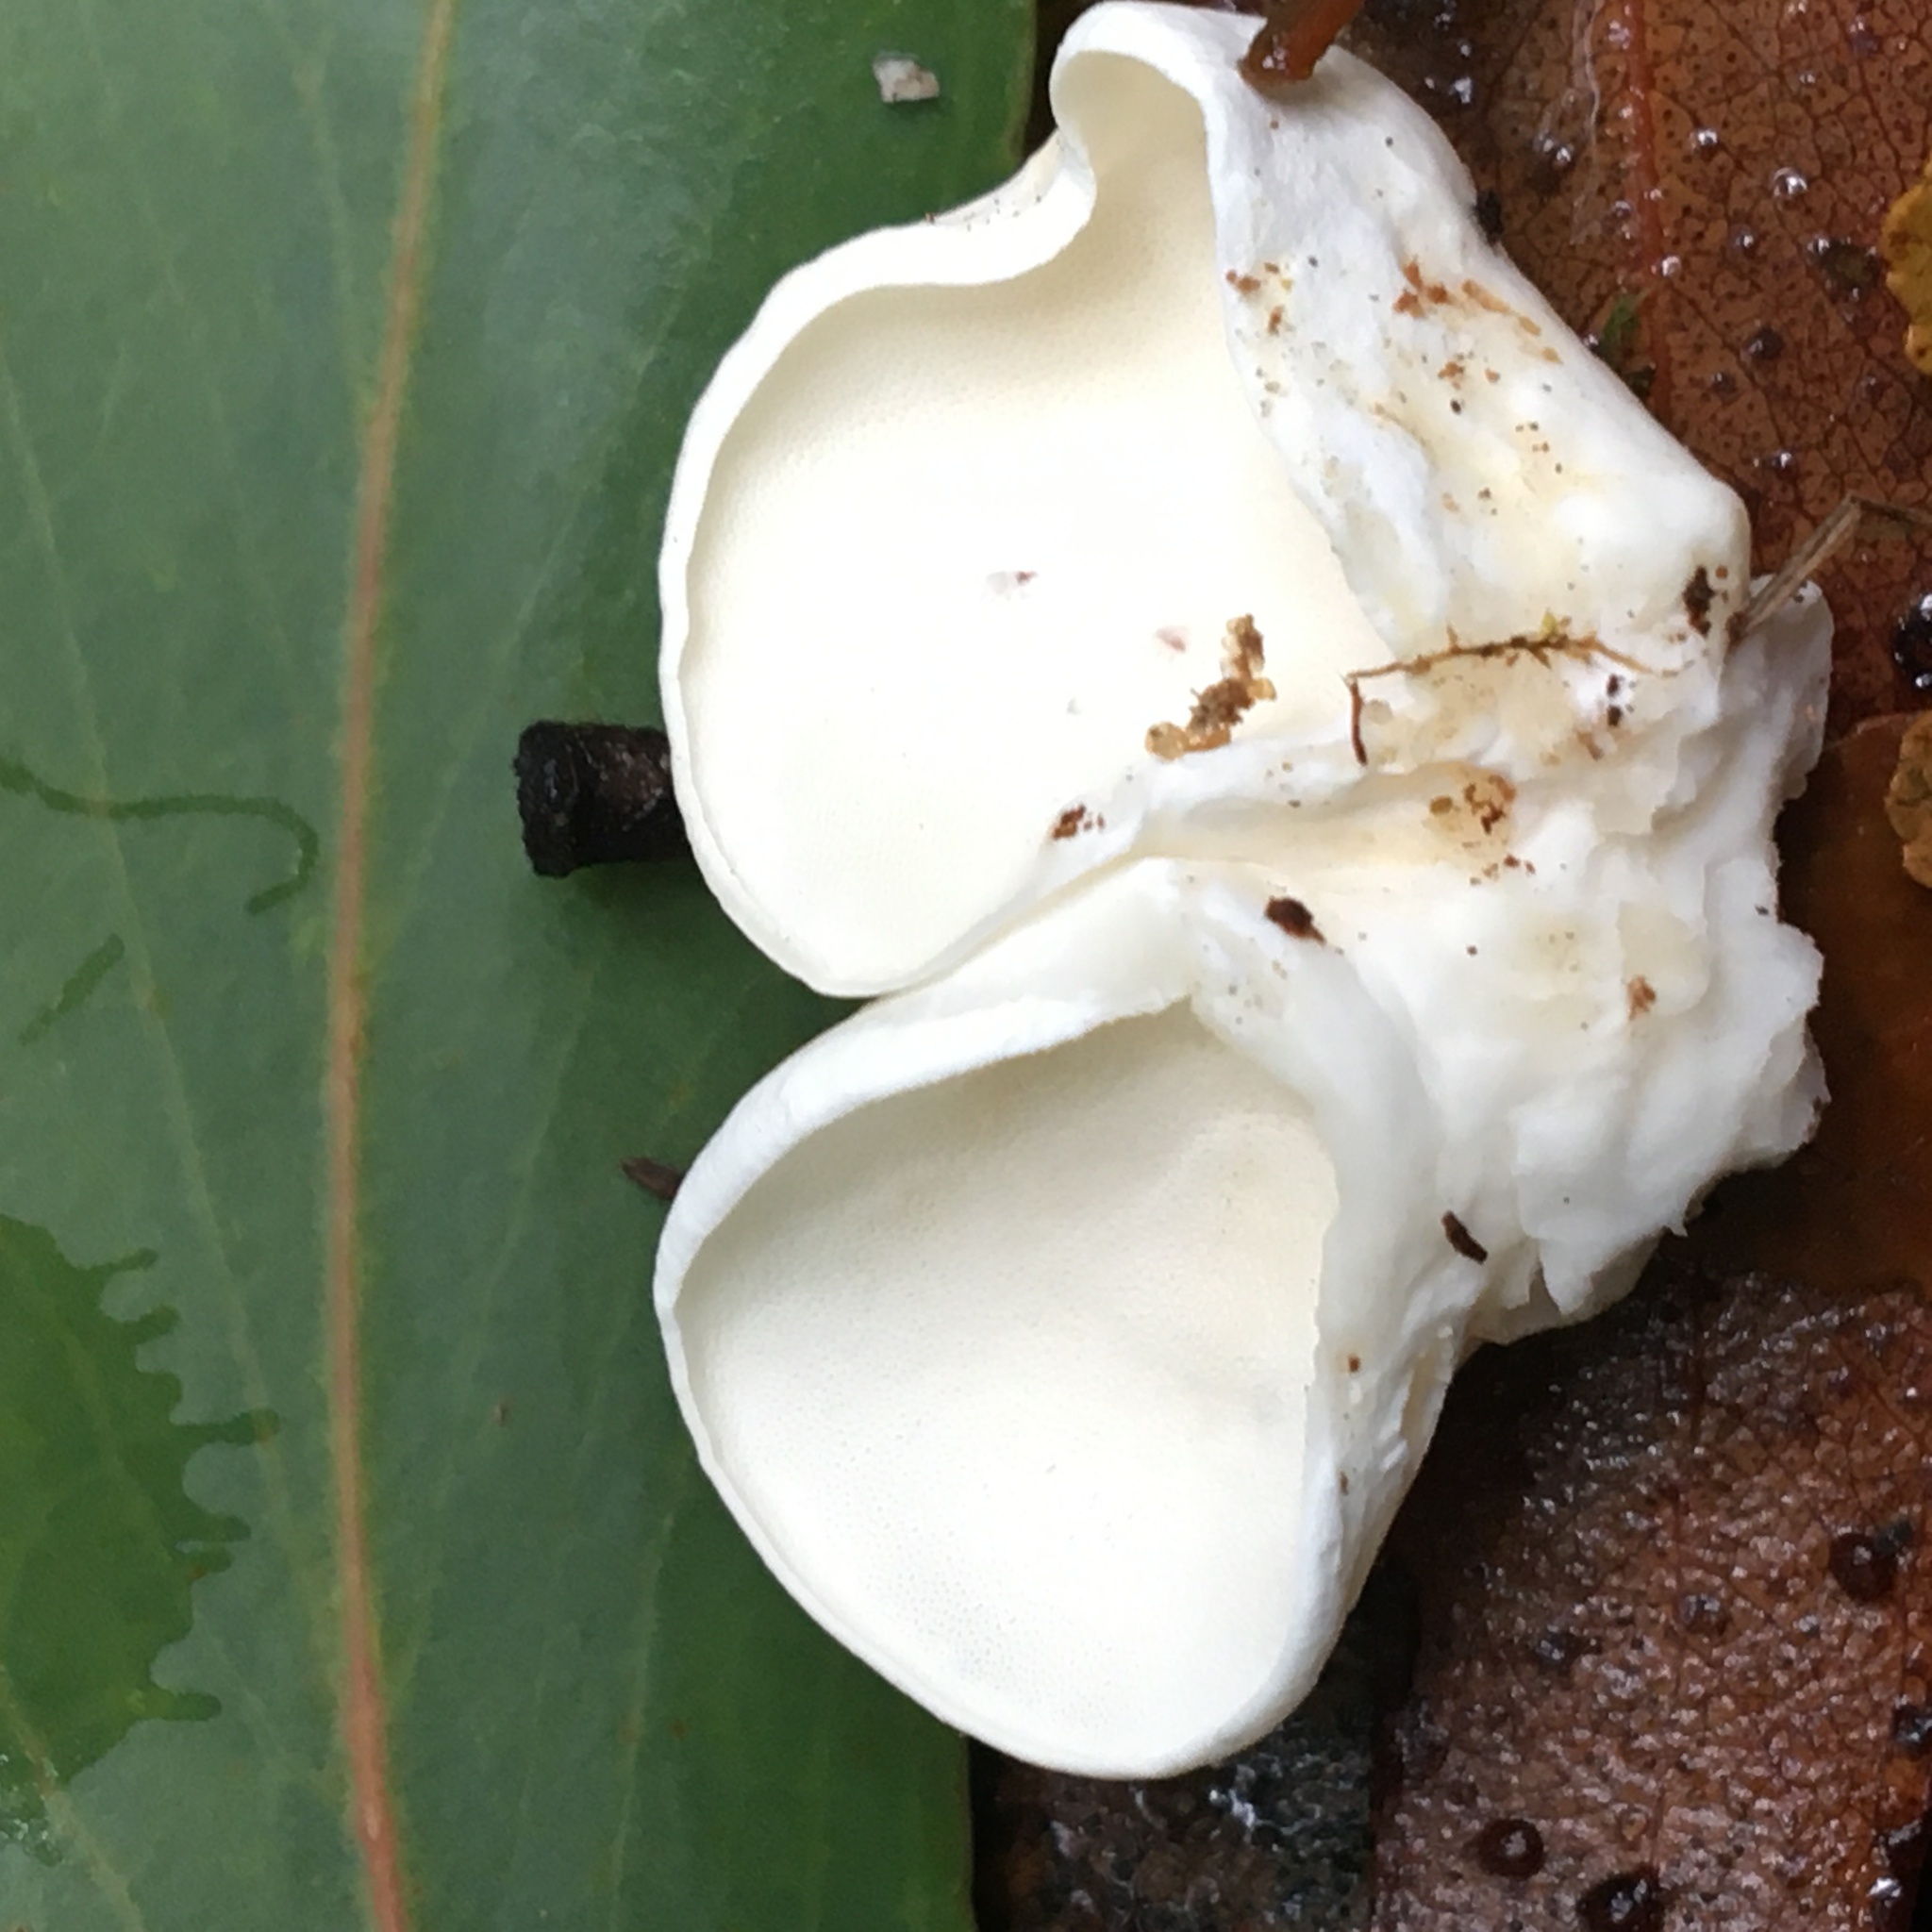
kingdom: Fungi
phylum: Basidiomycota
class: Agaricomycetes
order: Polyporales
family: Irpicaceae
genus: Gloeoporus
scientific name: Gloeoporus phlebophorus
